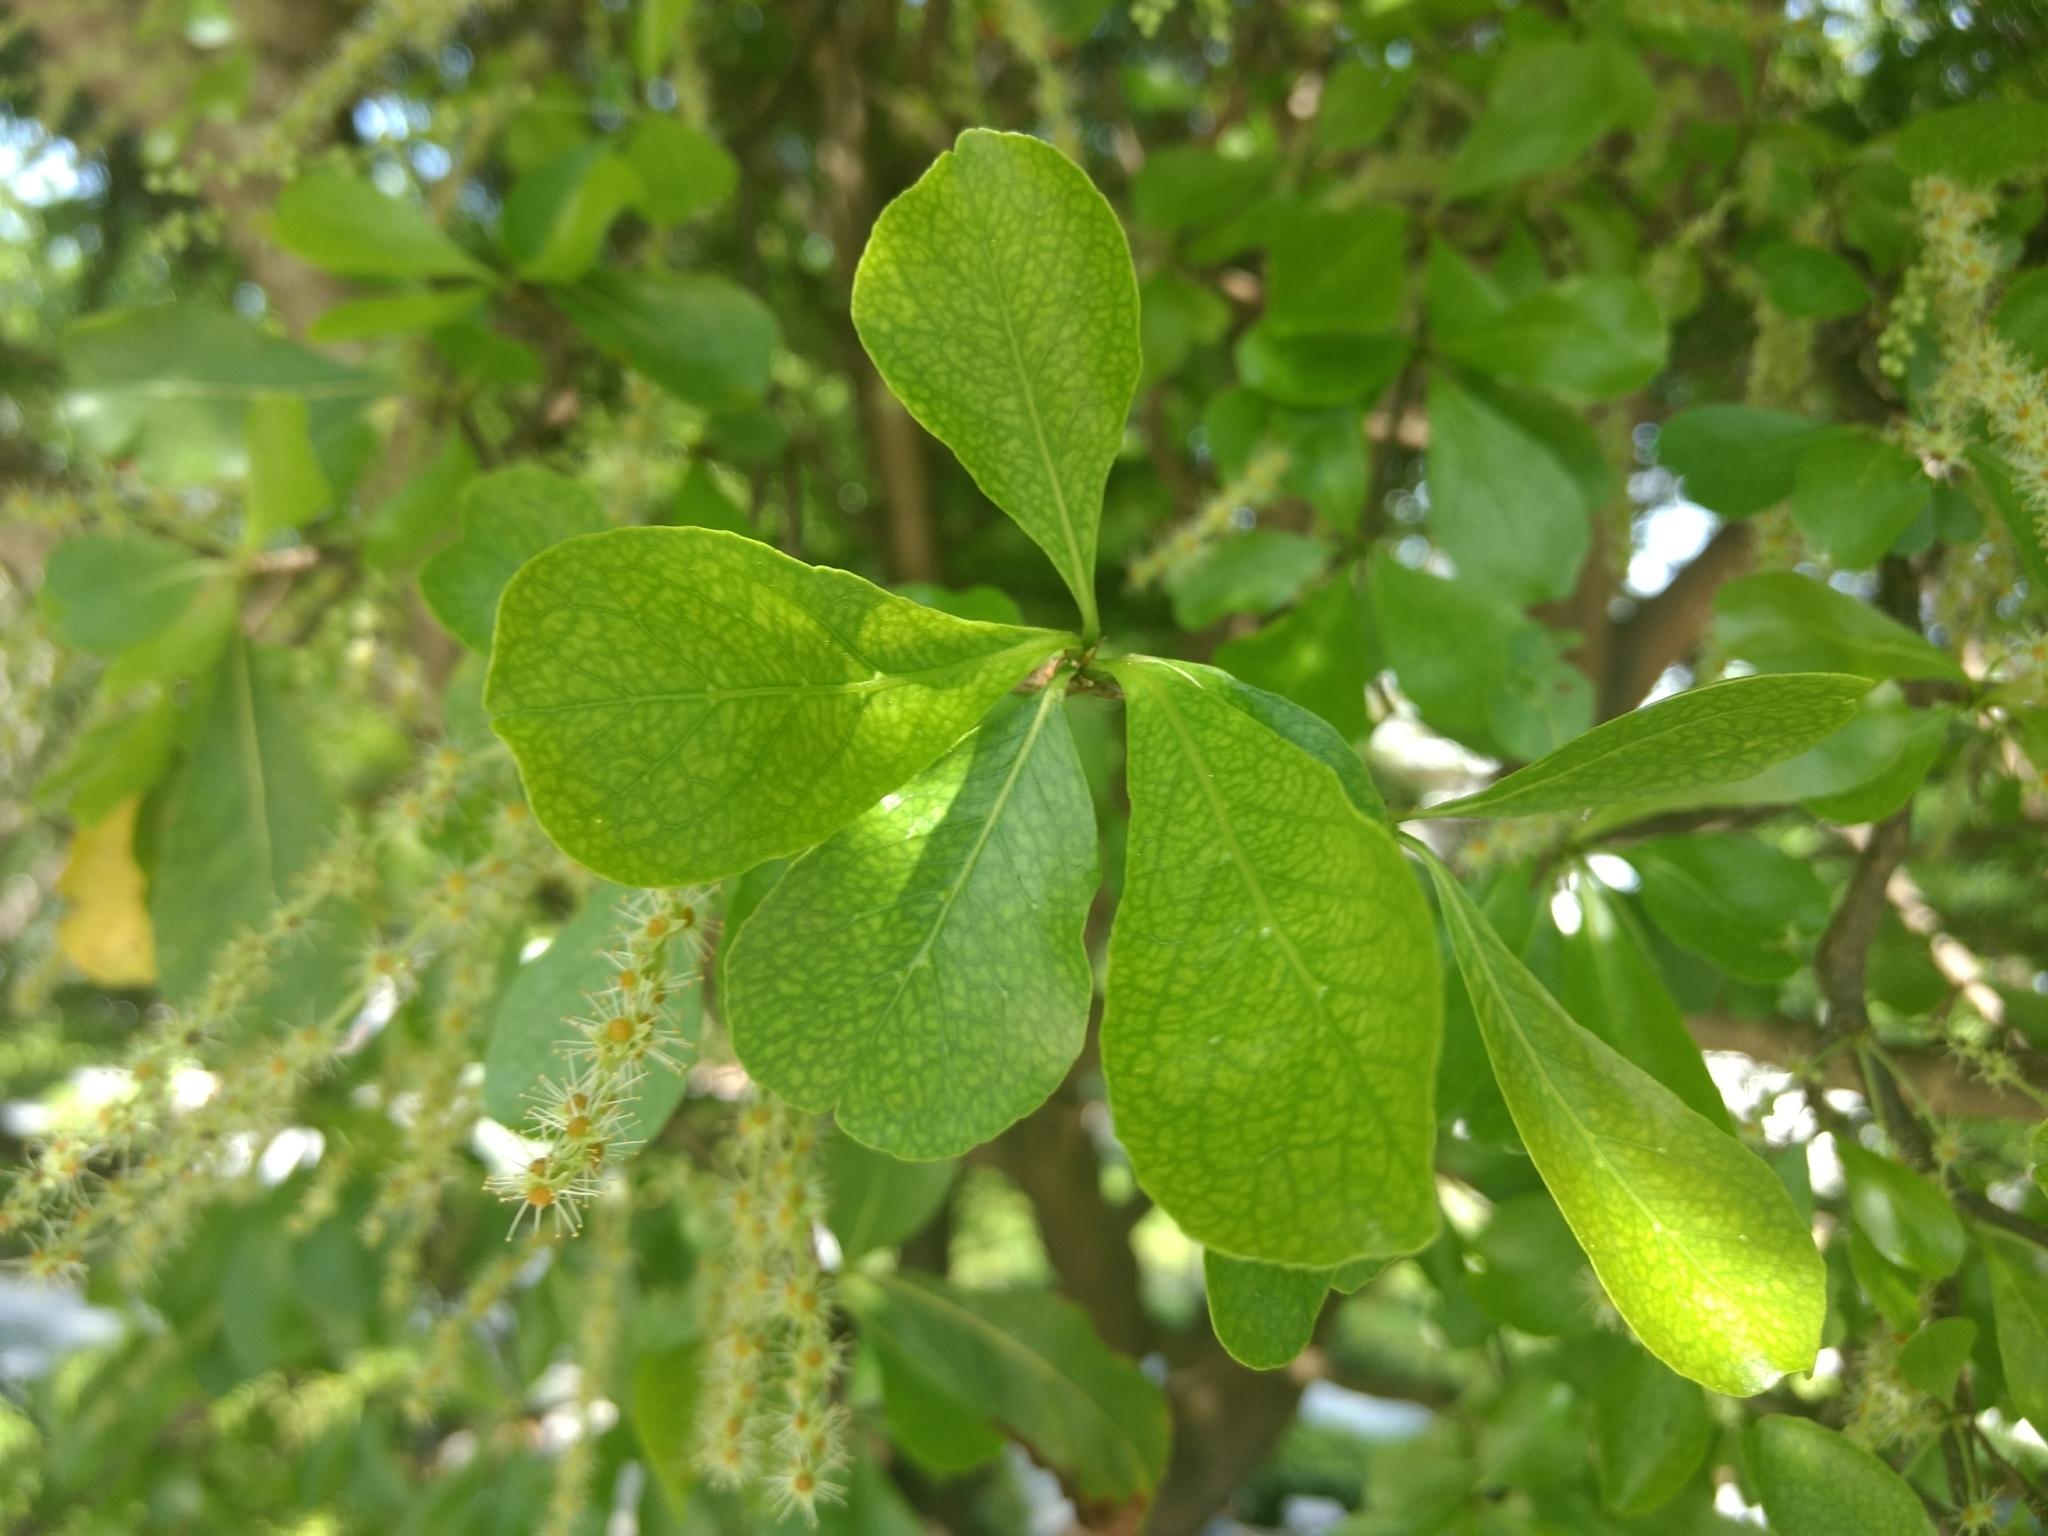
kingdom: Plantae
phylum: Tracheophyta
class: Magnoliopsida
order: Myrtales
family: Combretaceae
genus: Terminalia
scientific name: Terminalia neotaliala
